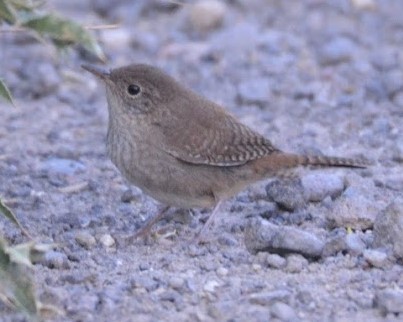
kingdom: Animalia
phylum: Chordata
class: Aves
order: Passeriformes
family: Troglodytidae
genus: Troglodytes
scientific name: Troglodytes aedon
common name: House wren
